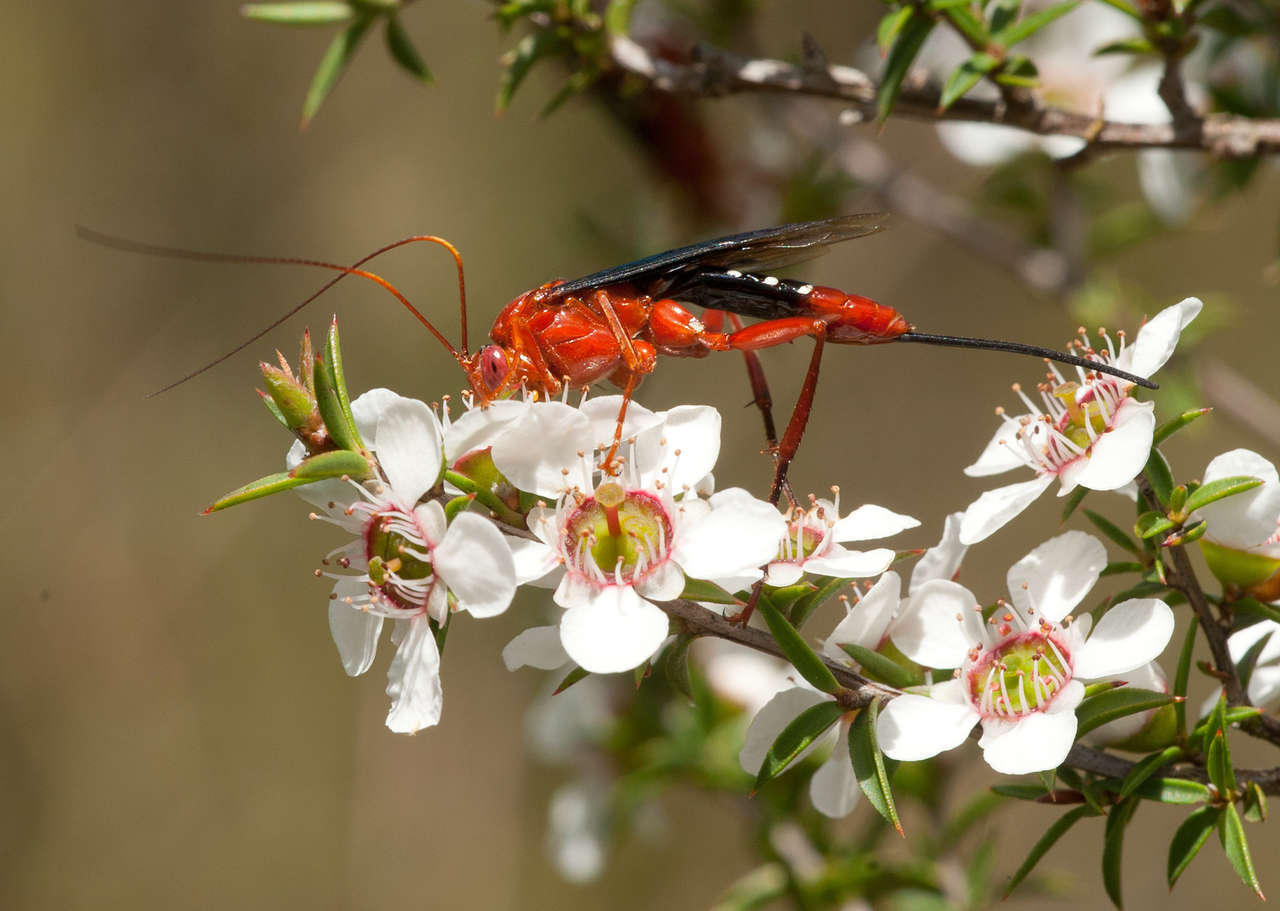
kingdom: Animalia
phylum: Arthropoda
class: Insecta
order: Hymenoptera
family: Ichneumonidae
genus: Lissopimpla
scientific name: Lissopimpla excelsa
